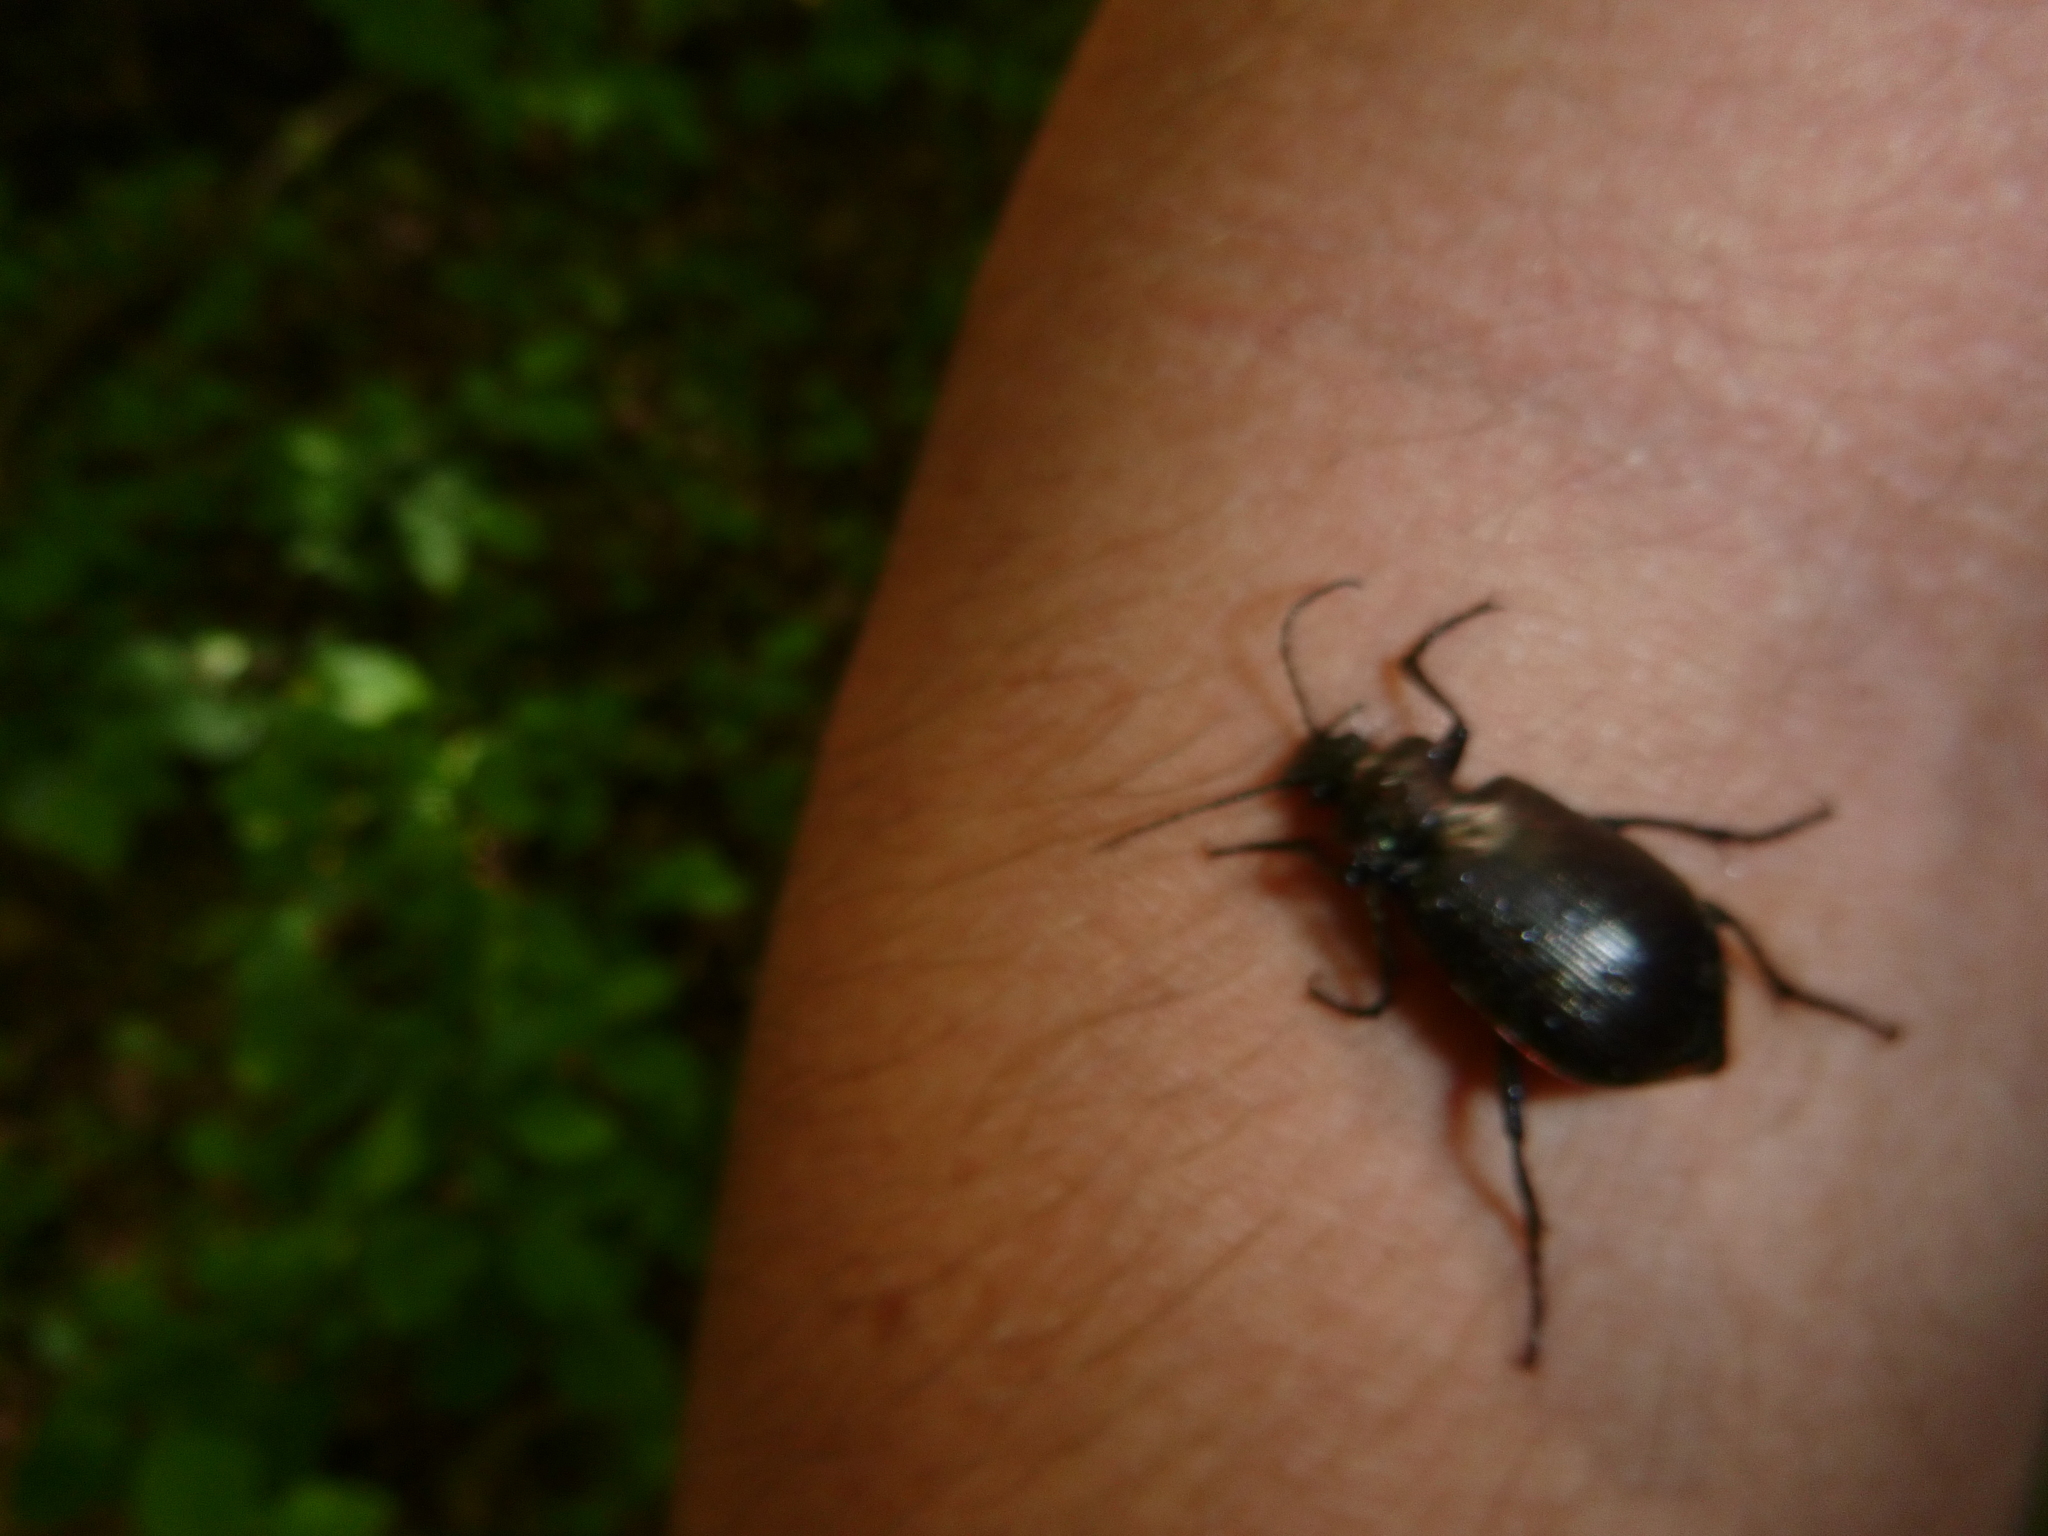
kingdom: Animalia
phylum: Arthropoda
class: Insecta
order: Coleoptera
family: Carabidae
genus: Calosoma
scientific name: Calosoma inquisitor
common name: Caterpillar-hunter
